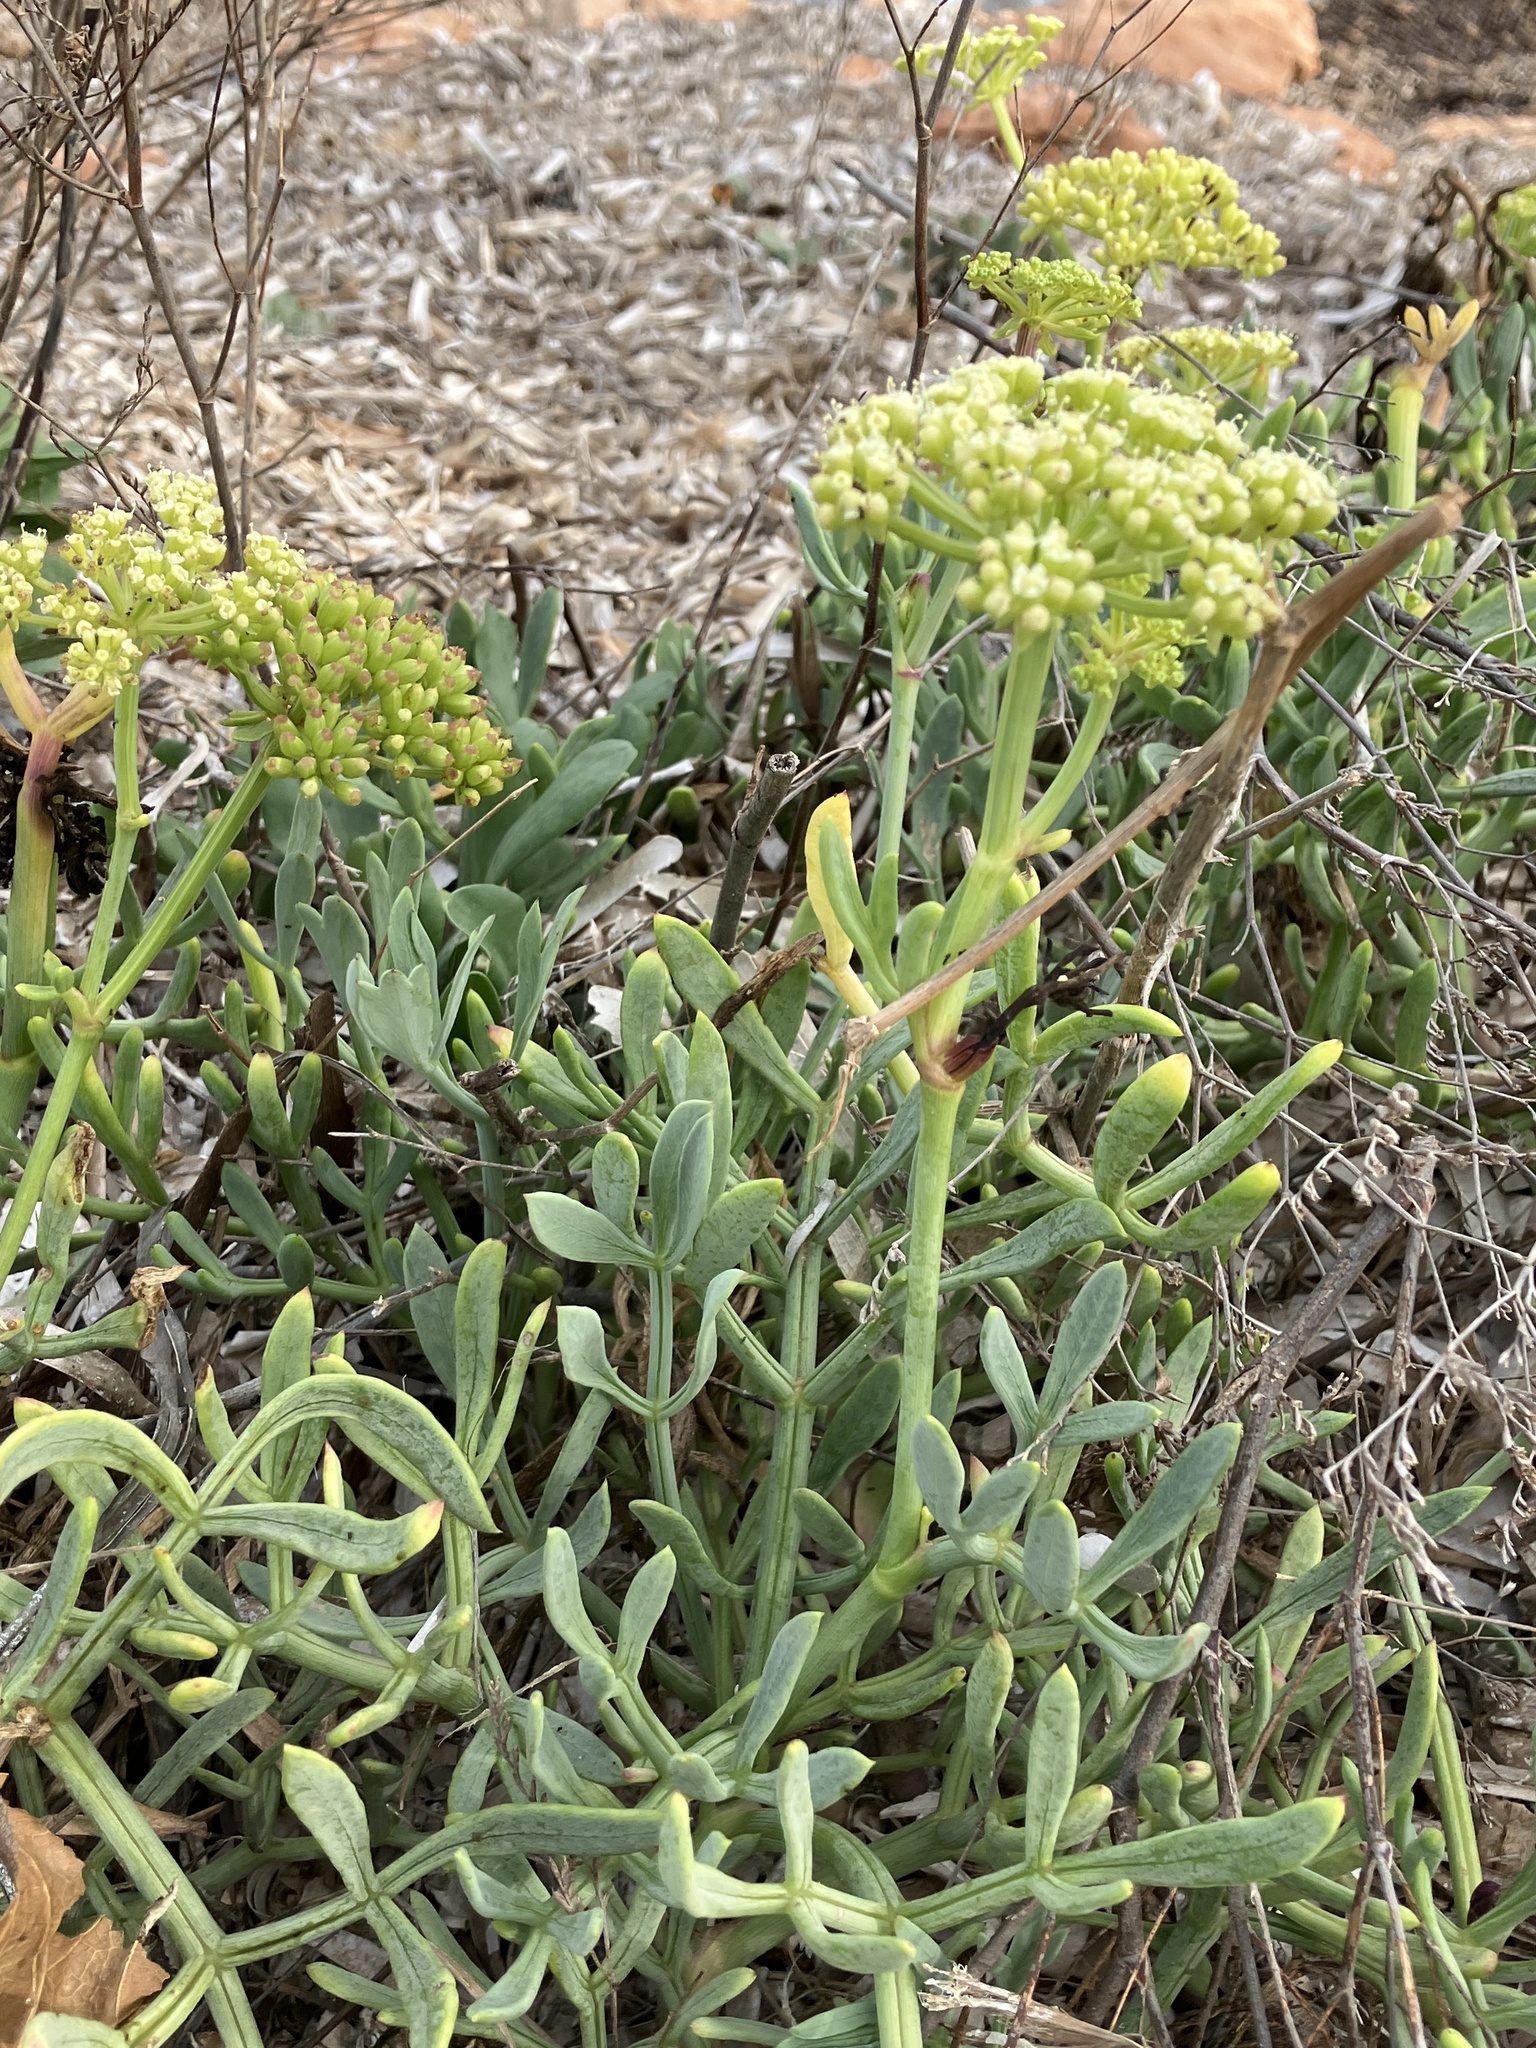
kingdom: Plantae
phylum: Tracheophyta
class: Magnoliopsida
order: Apiales
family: Apiaceae
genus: Crithmum
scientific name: Crithmum maritimum
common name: Rock samphire
